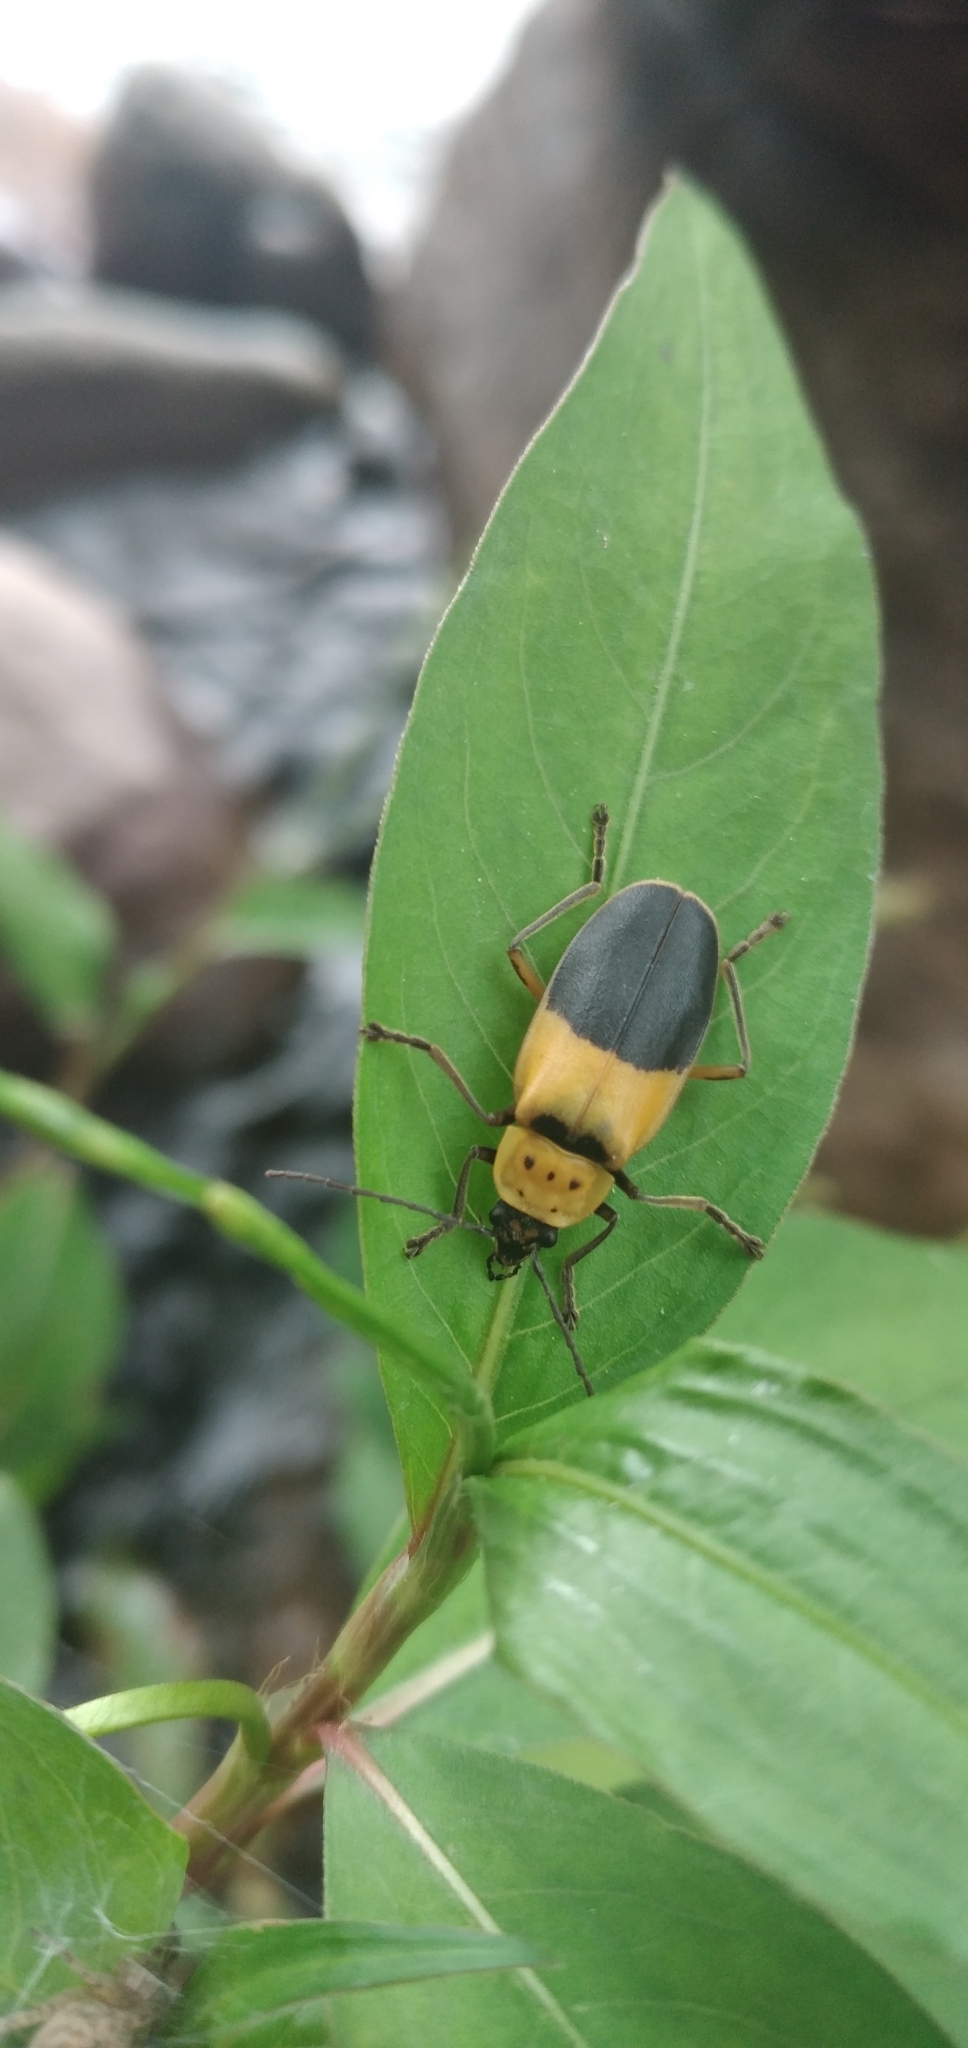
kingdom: Animalia
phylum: Arthropoda
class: Insecta
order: Coleoptera
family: Cantharidae
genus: Chauliognathus
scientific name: Chauliognathus
